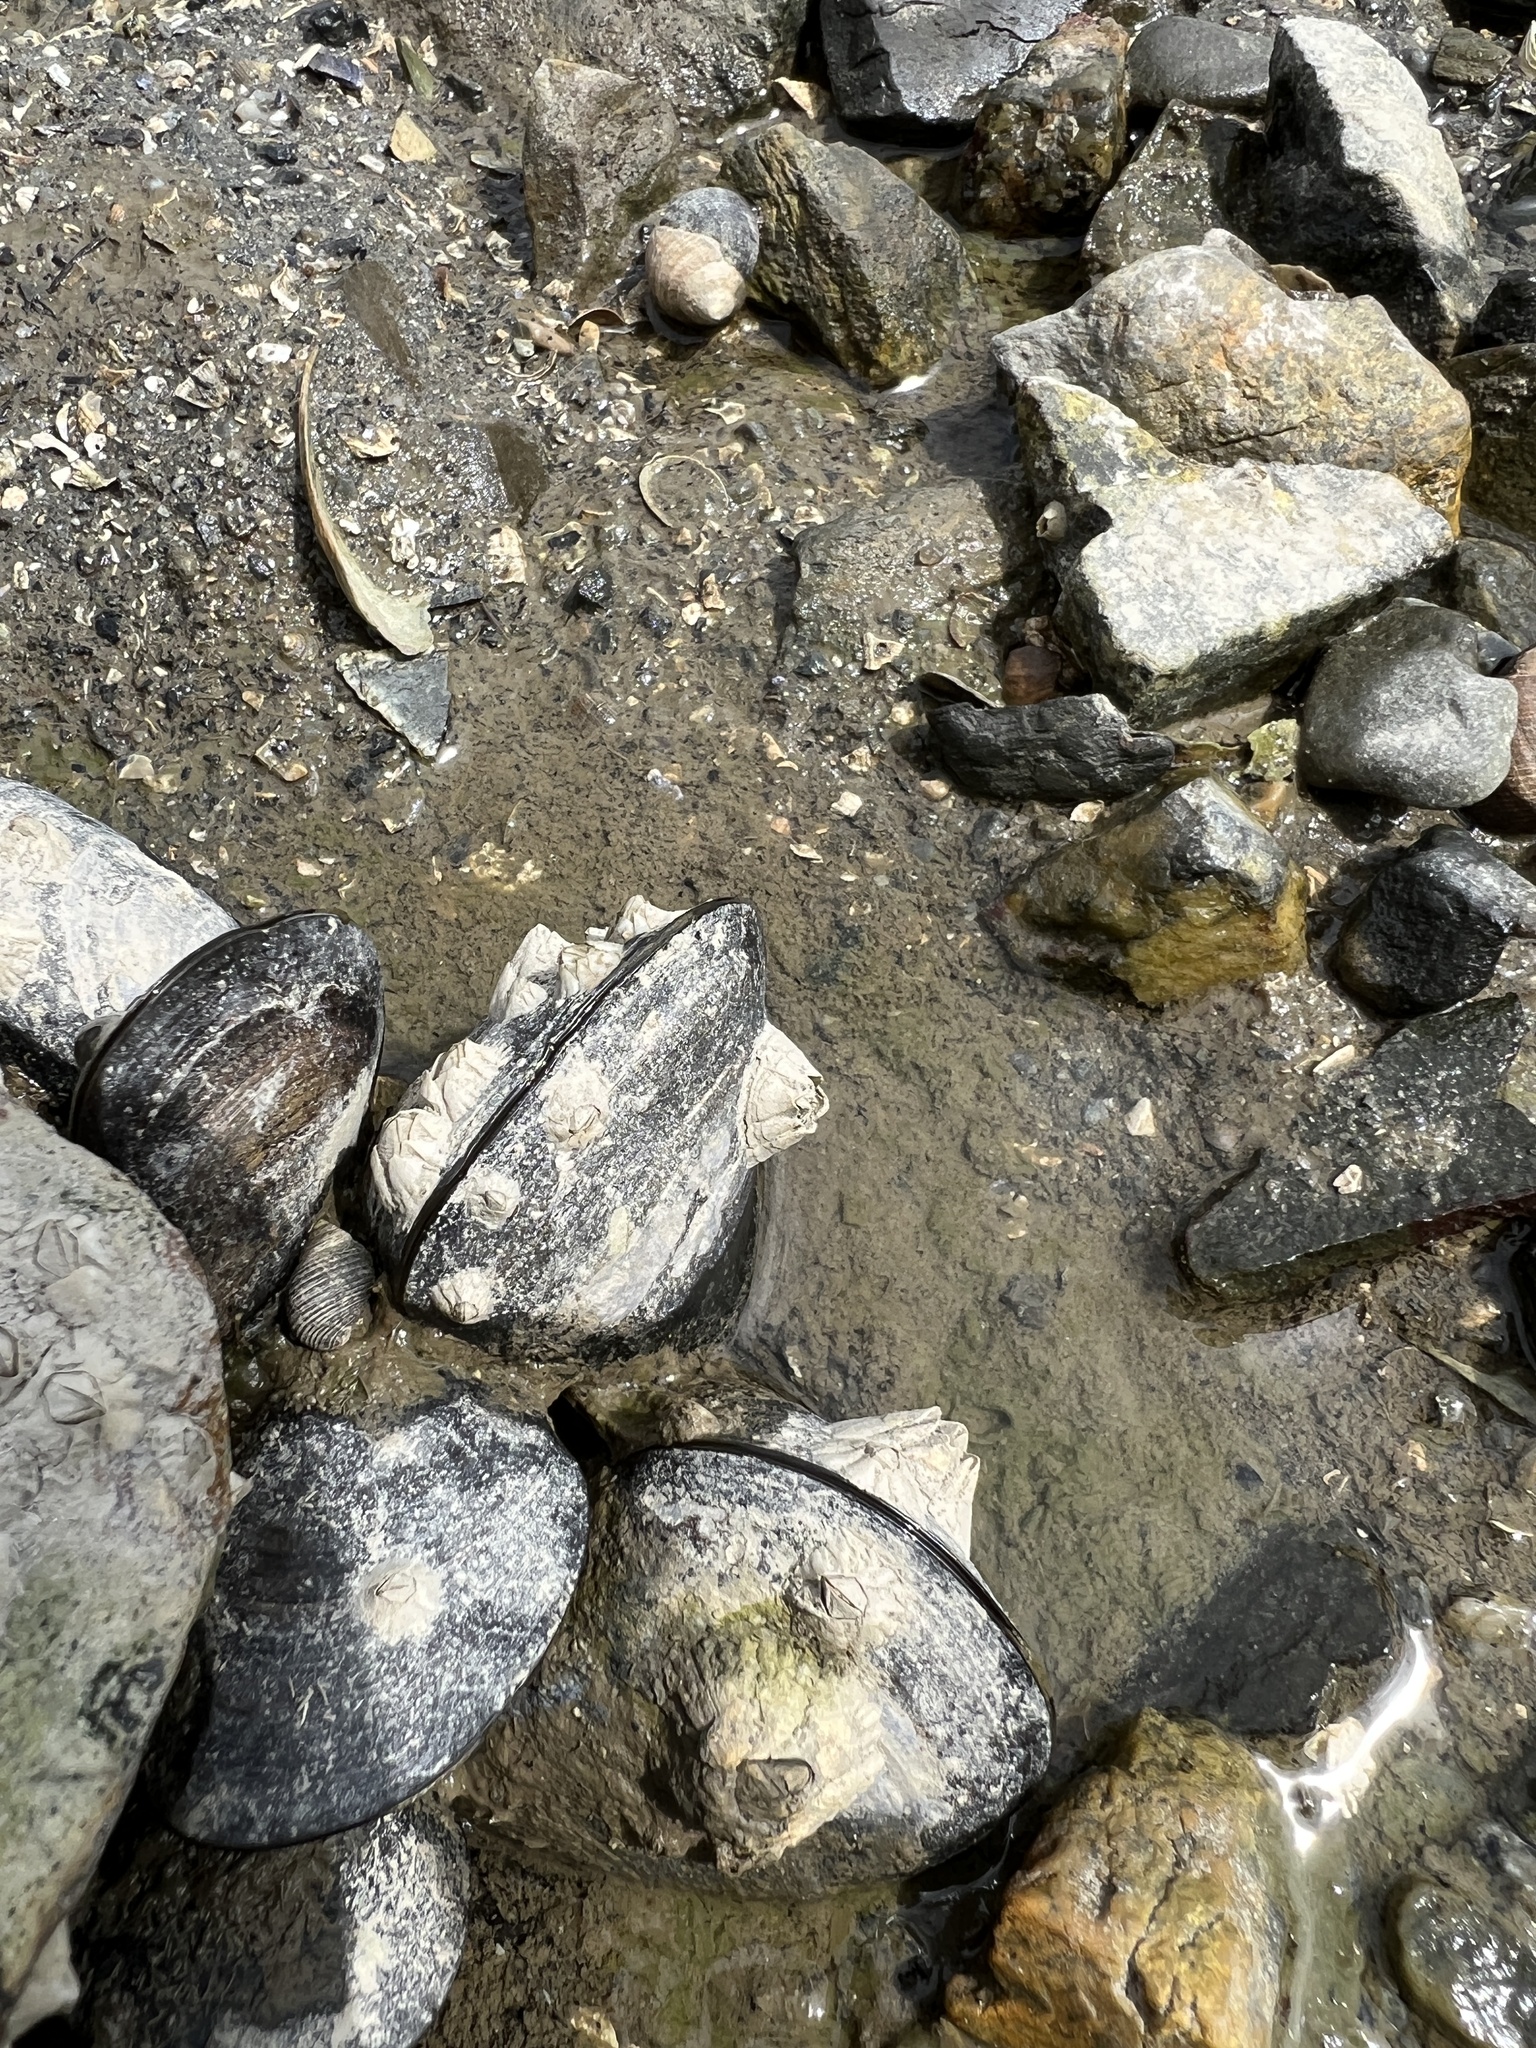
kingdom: Animalia
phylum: Arthropoda
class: Maxillopoda
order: Sessilia
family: Archaeobalanidae
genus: Semibalanus
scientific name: Semibalanus balanoides
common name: Acorn barnacle
